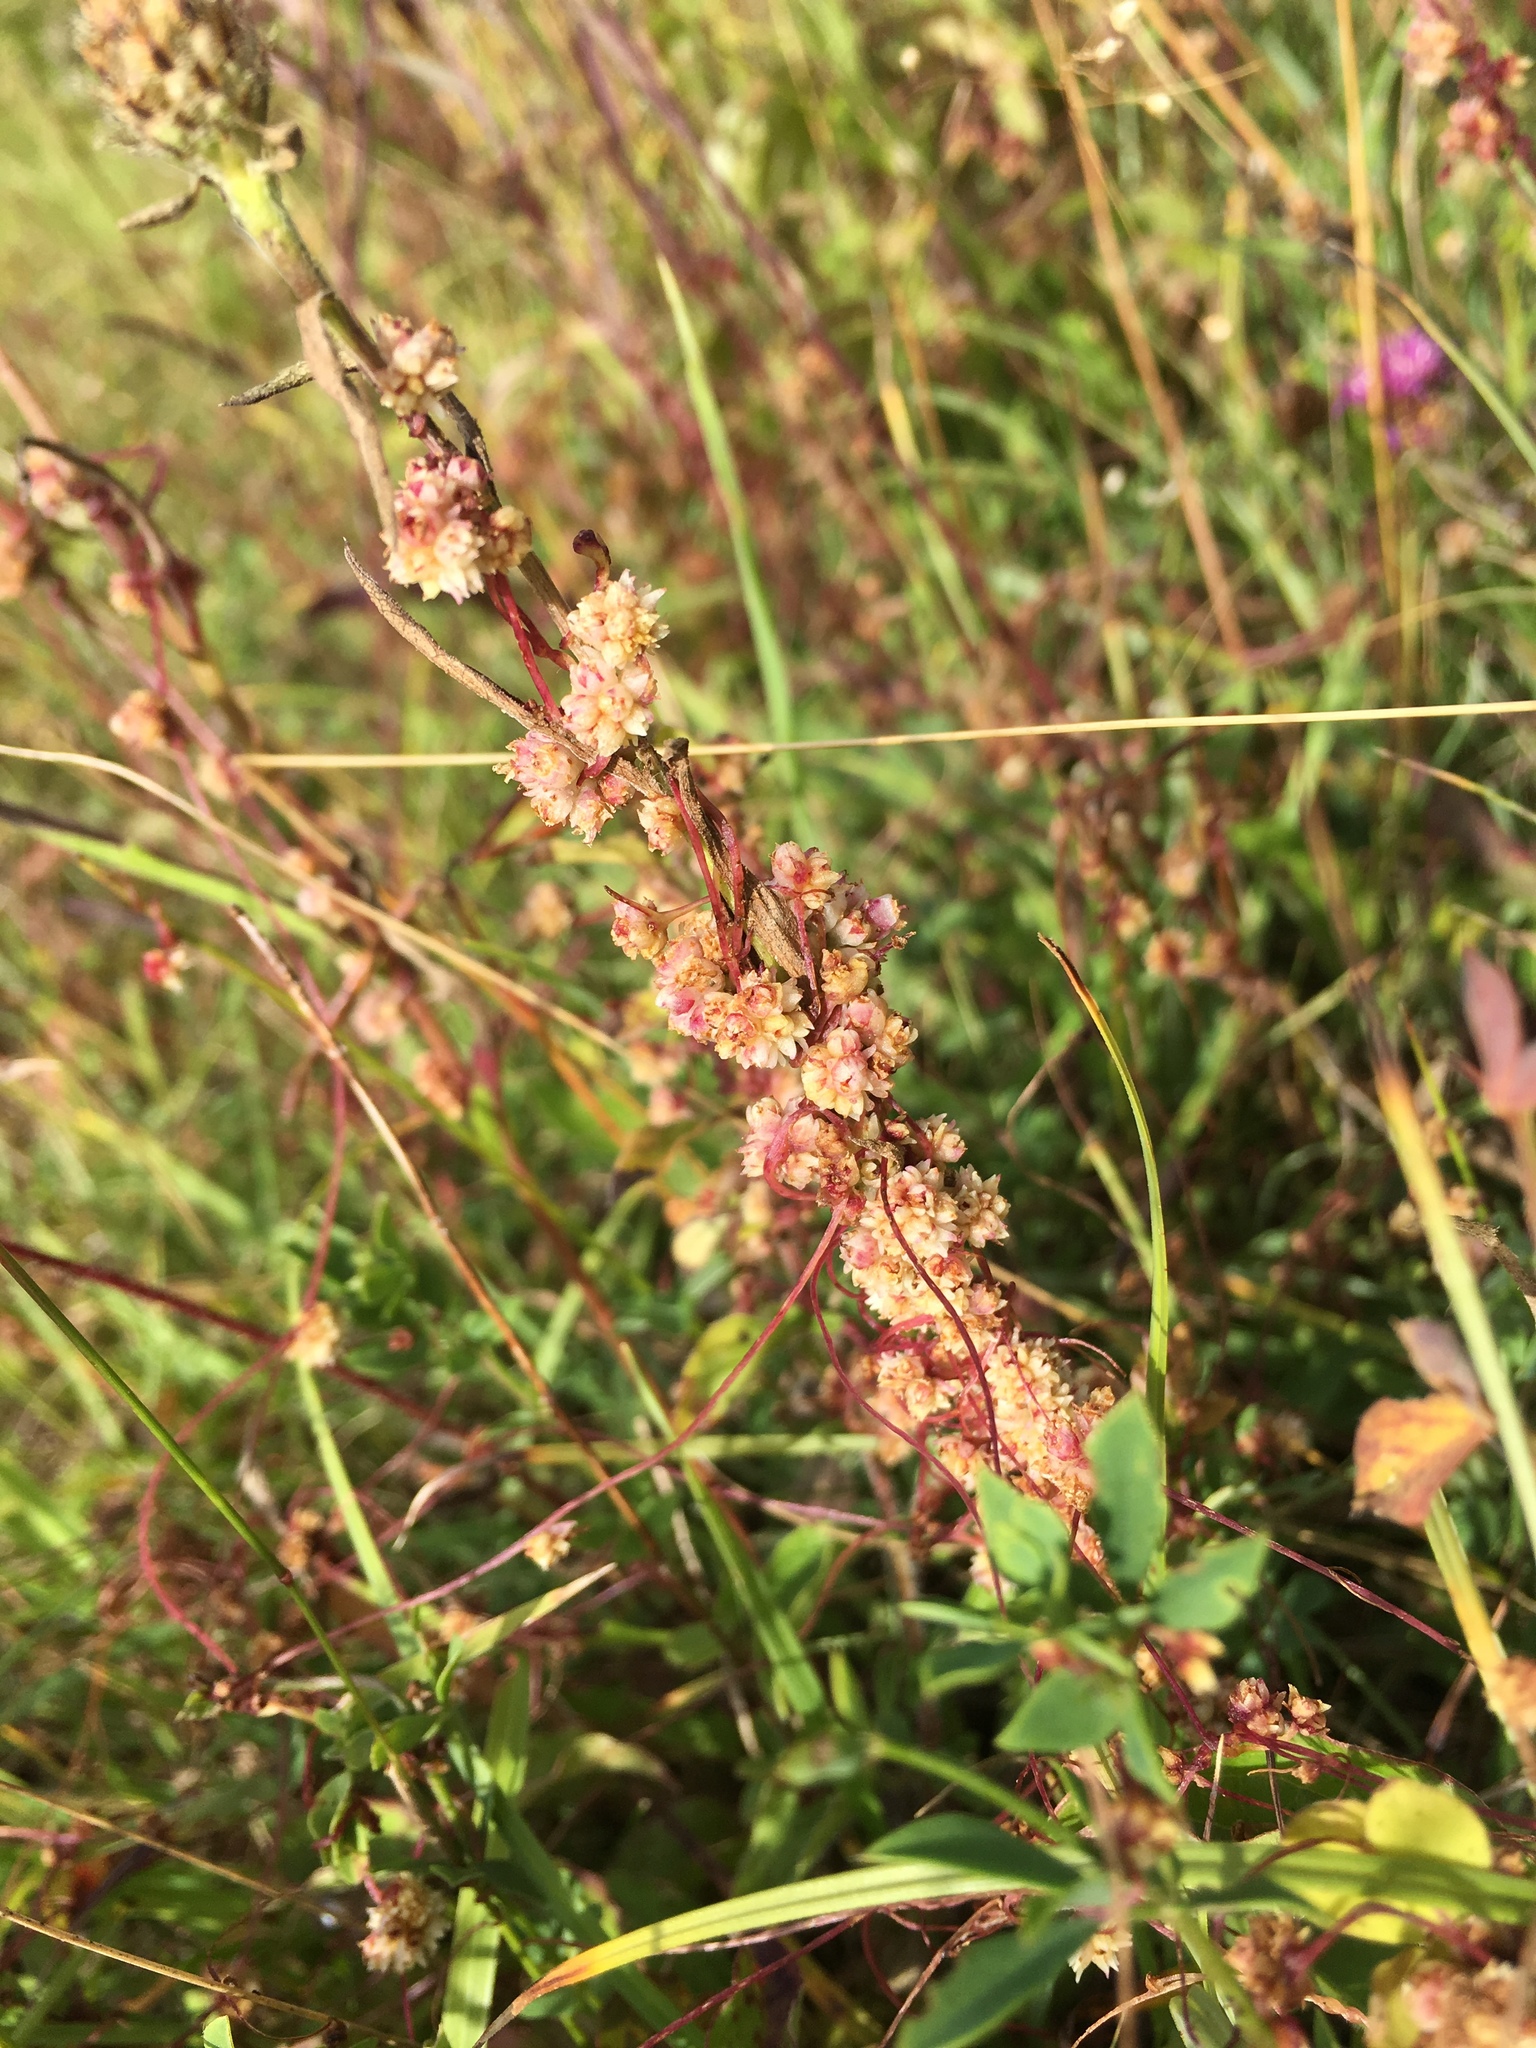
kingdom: Plantae
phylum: Tracheophyta
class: Magnoliopsida
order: Solanales
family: Convolvulaceae
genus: Cuscuta
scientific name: Cuscuta epithymum
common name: Clover dodder
